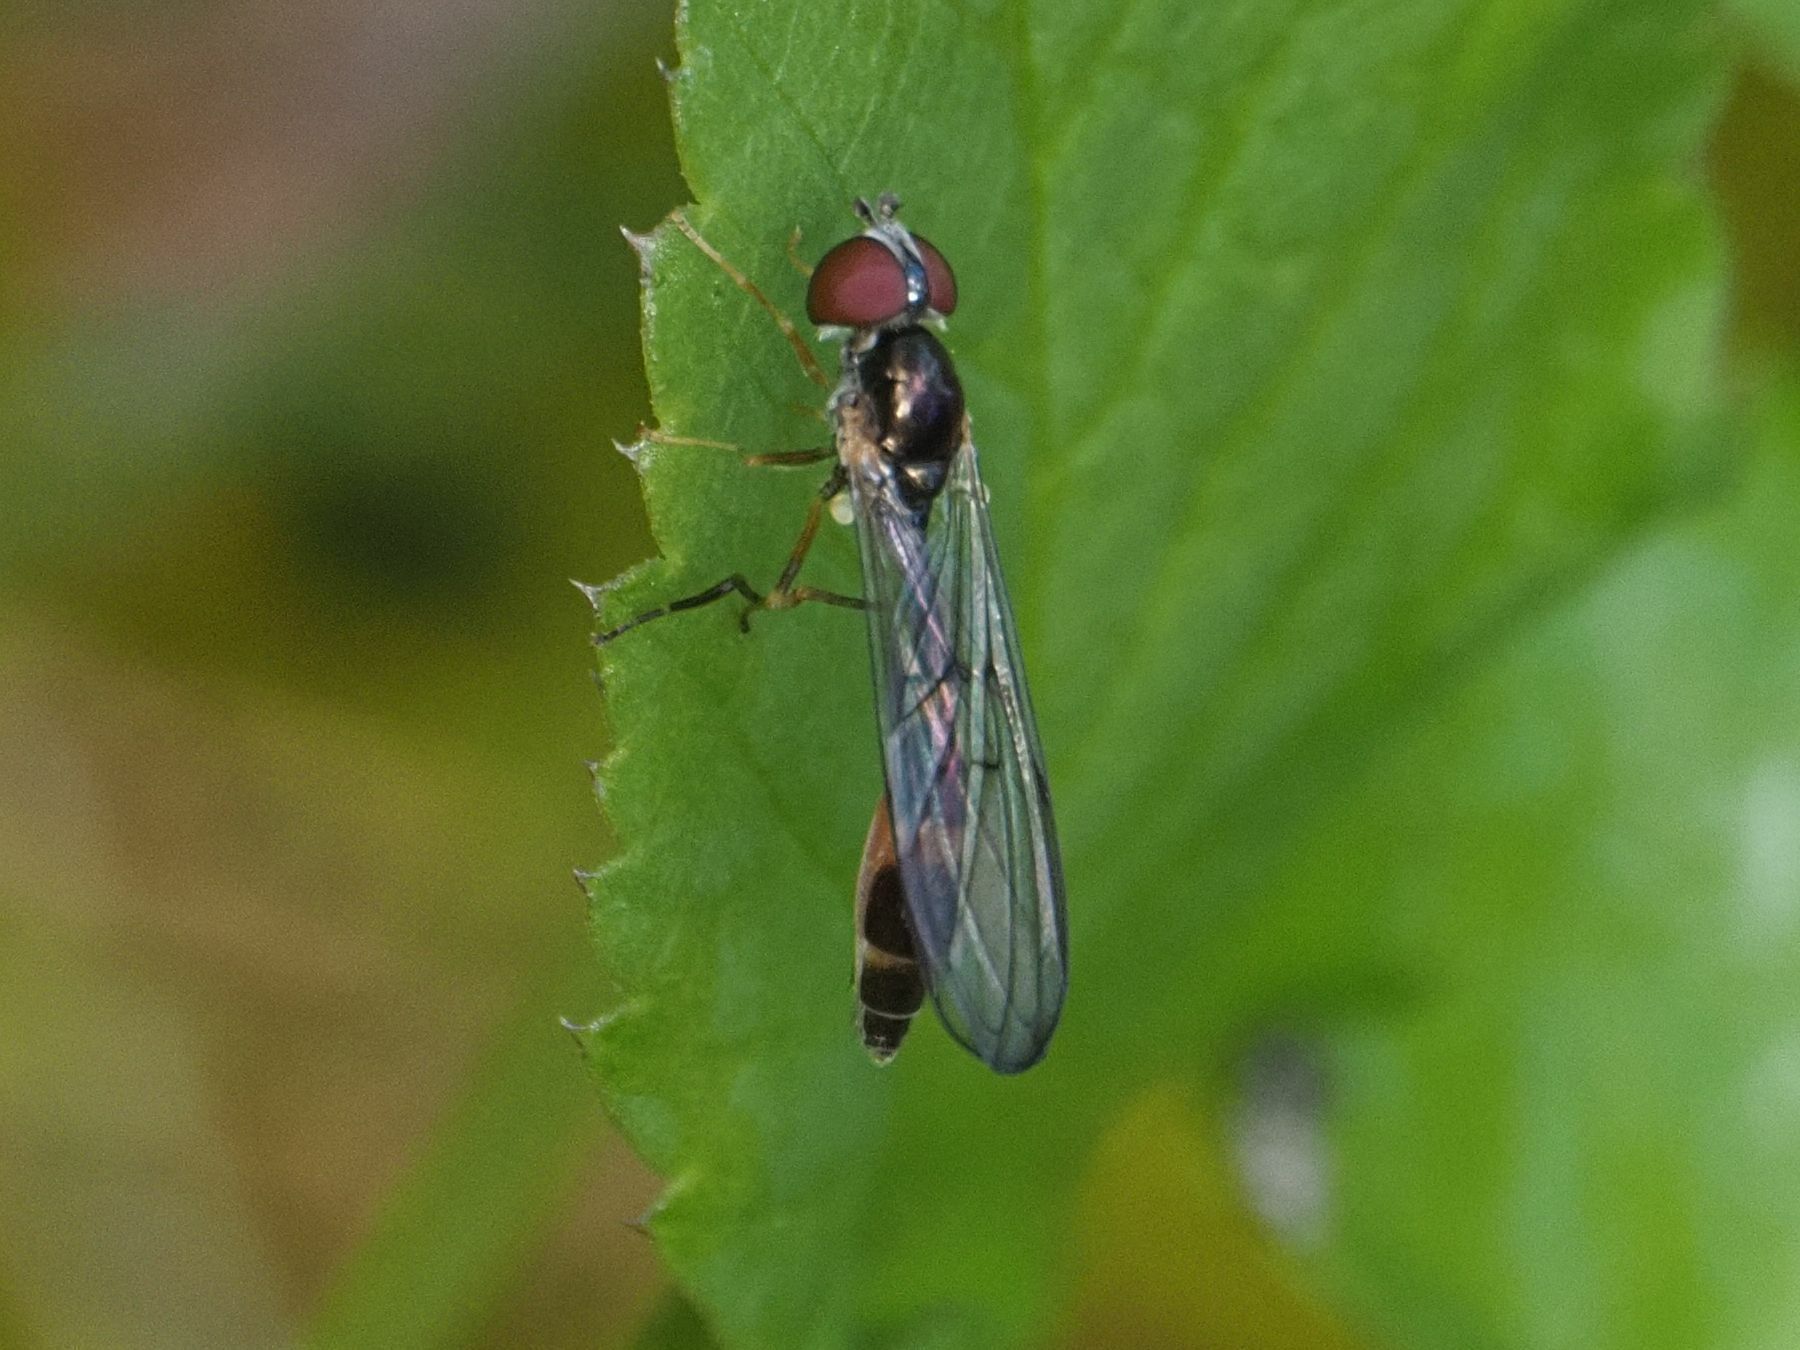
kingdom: Animalia
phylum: Arthropoda
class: Insecta
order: Diptera
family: Syrphidae
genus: Baccha
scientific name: Baccha elongata
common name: Common dainty
